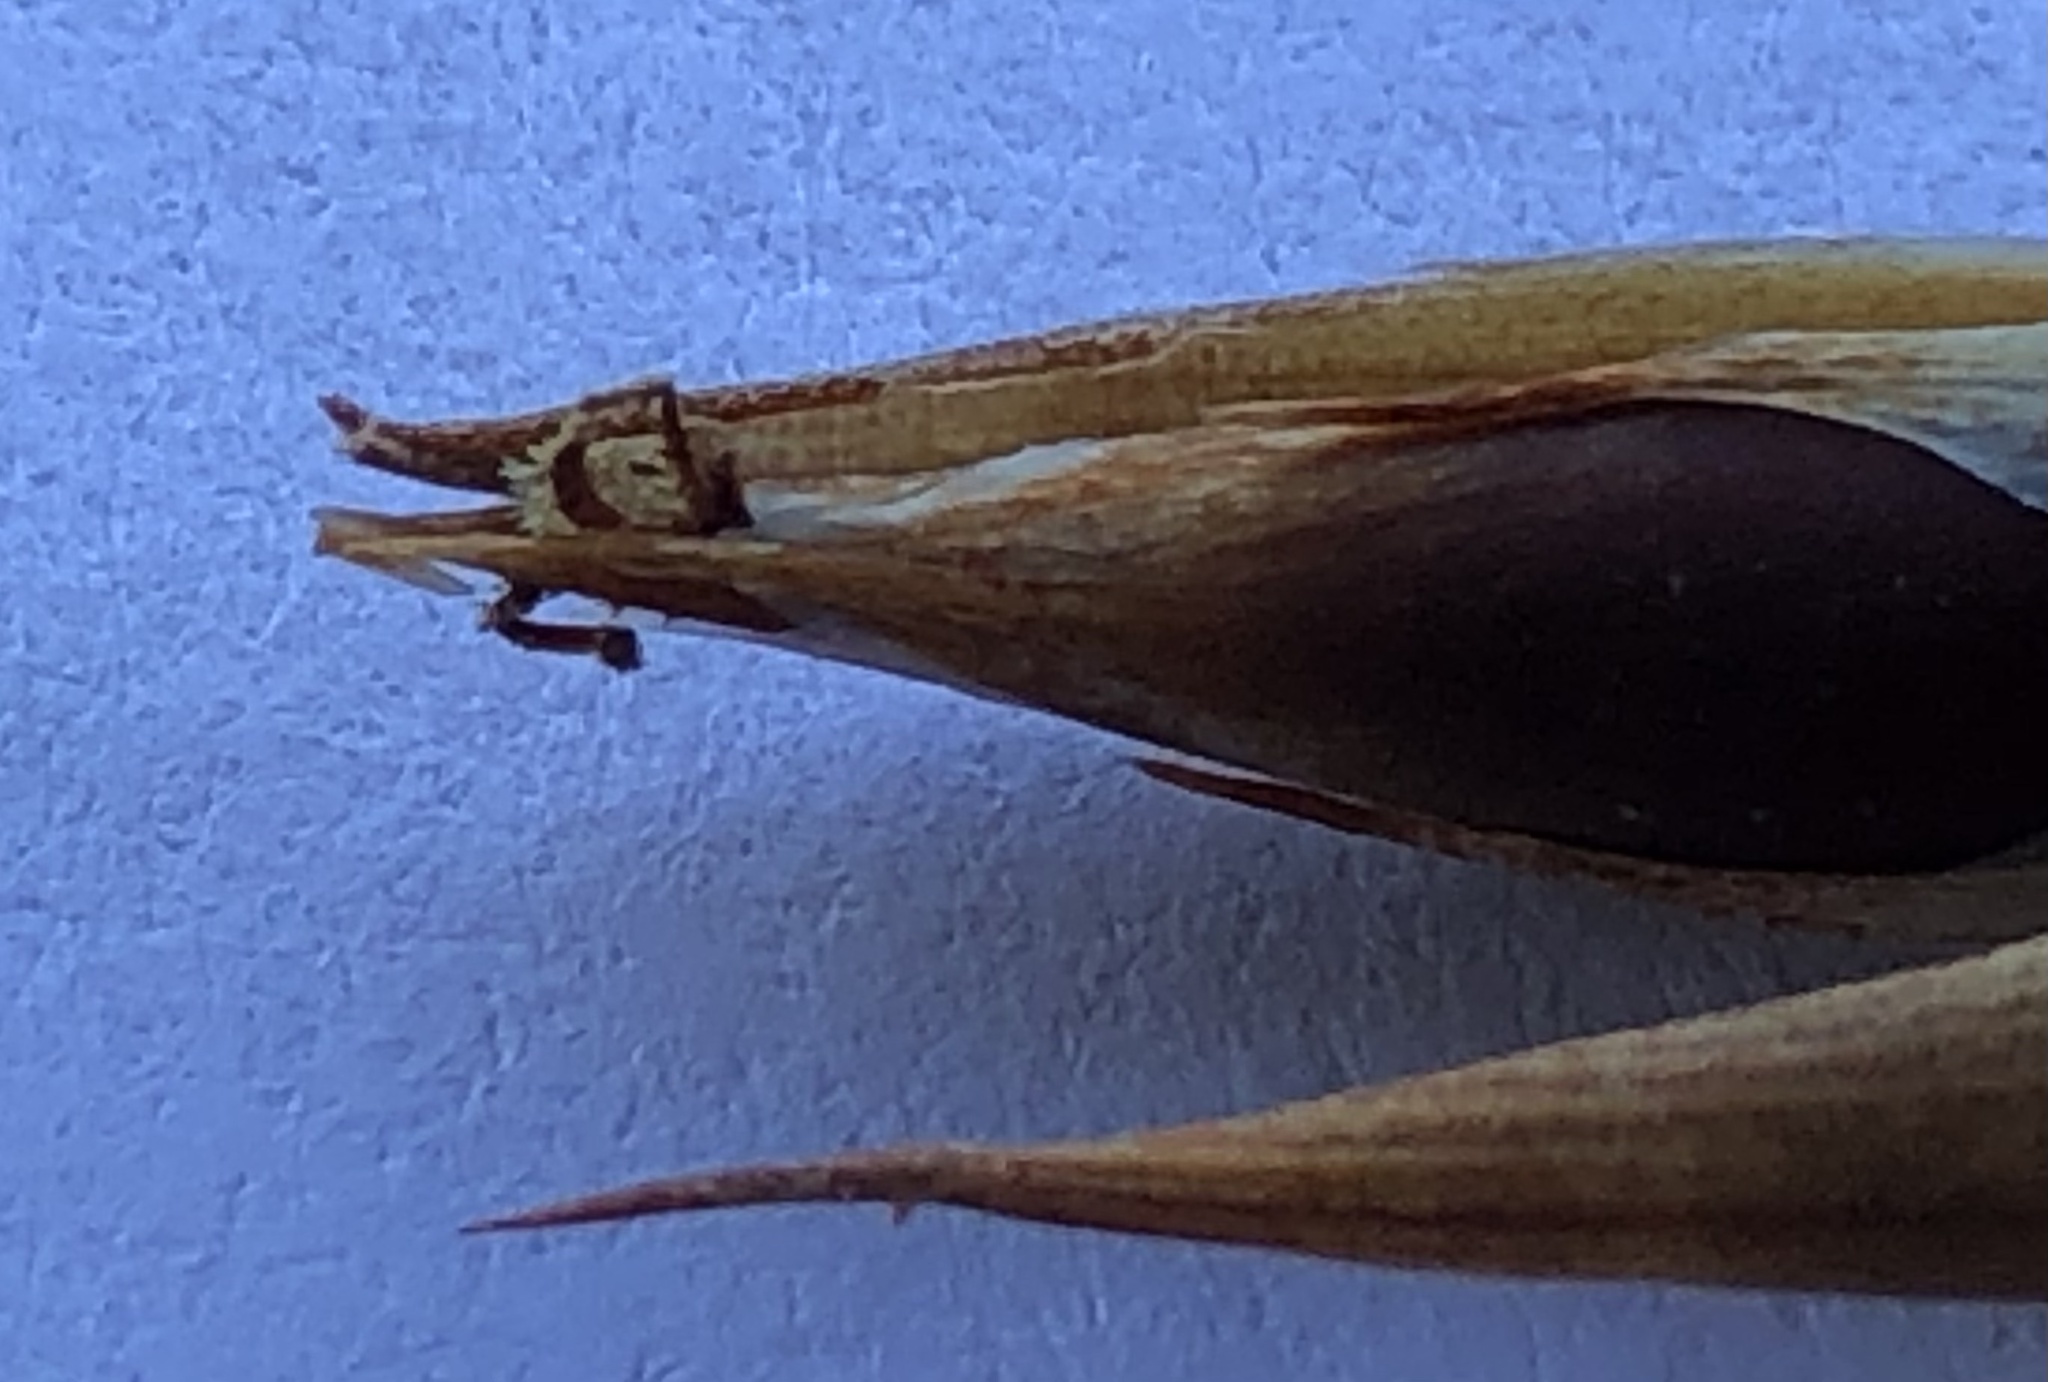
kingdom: Plantae
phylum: Tracheophyta
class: Liliopsida
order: Poales
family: Restionaceae
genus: Cannomois
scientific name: Cannomois primosii
